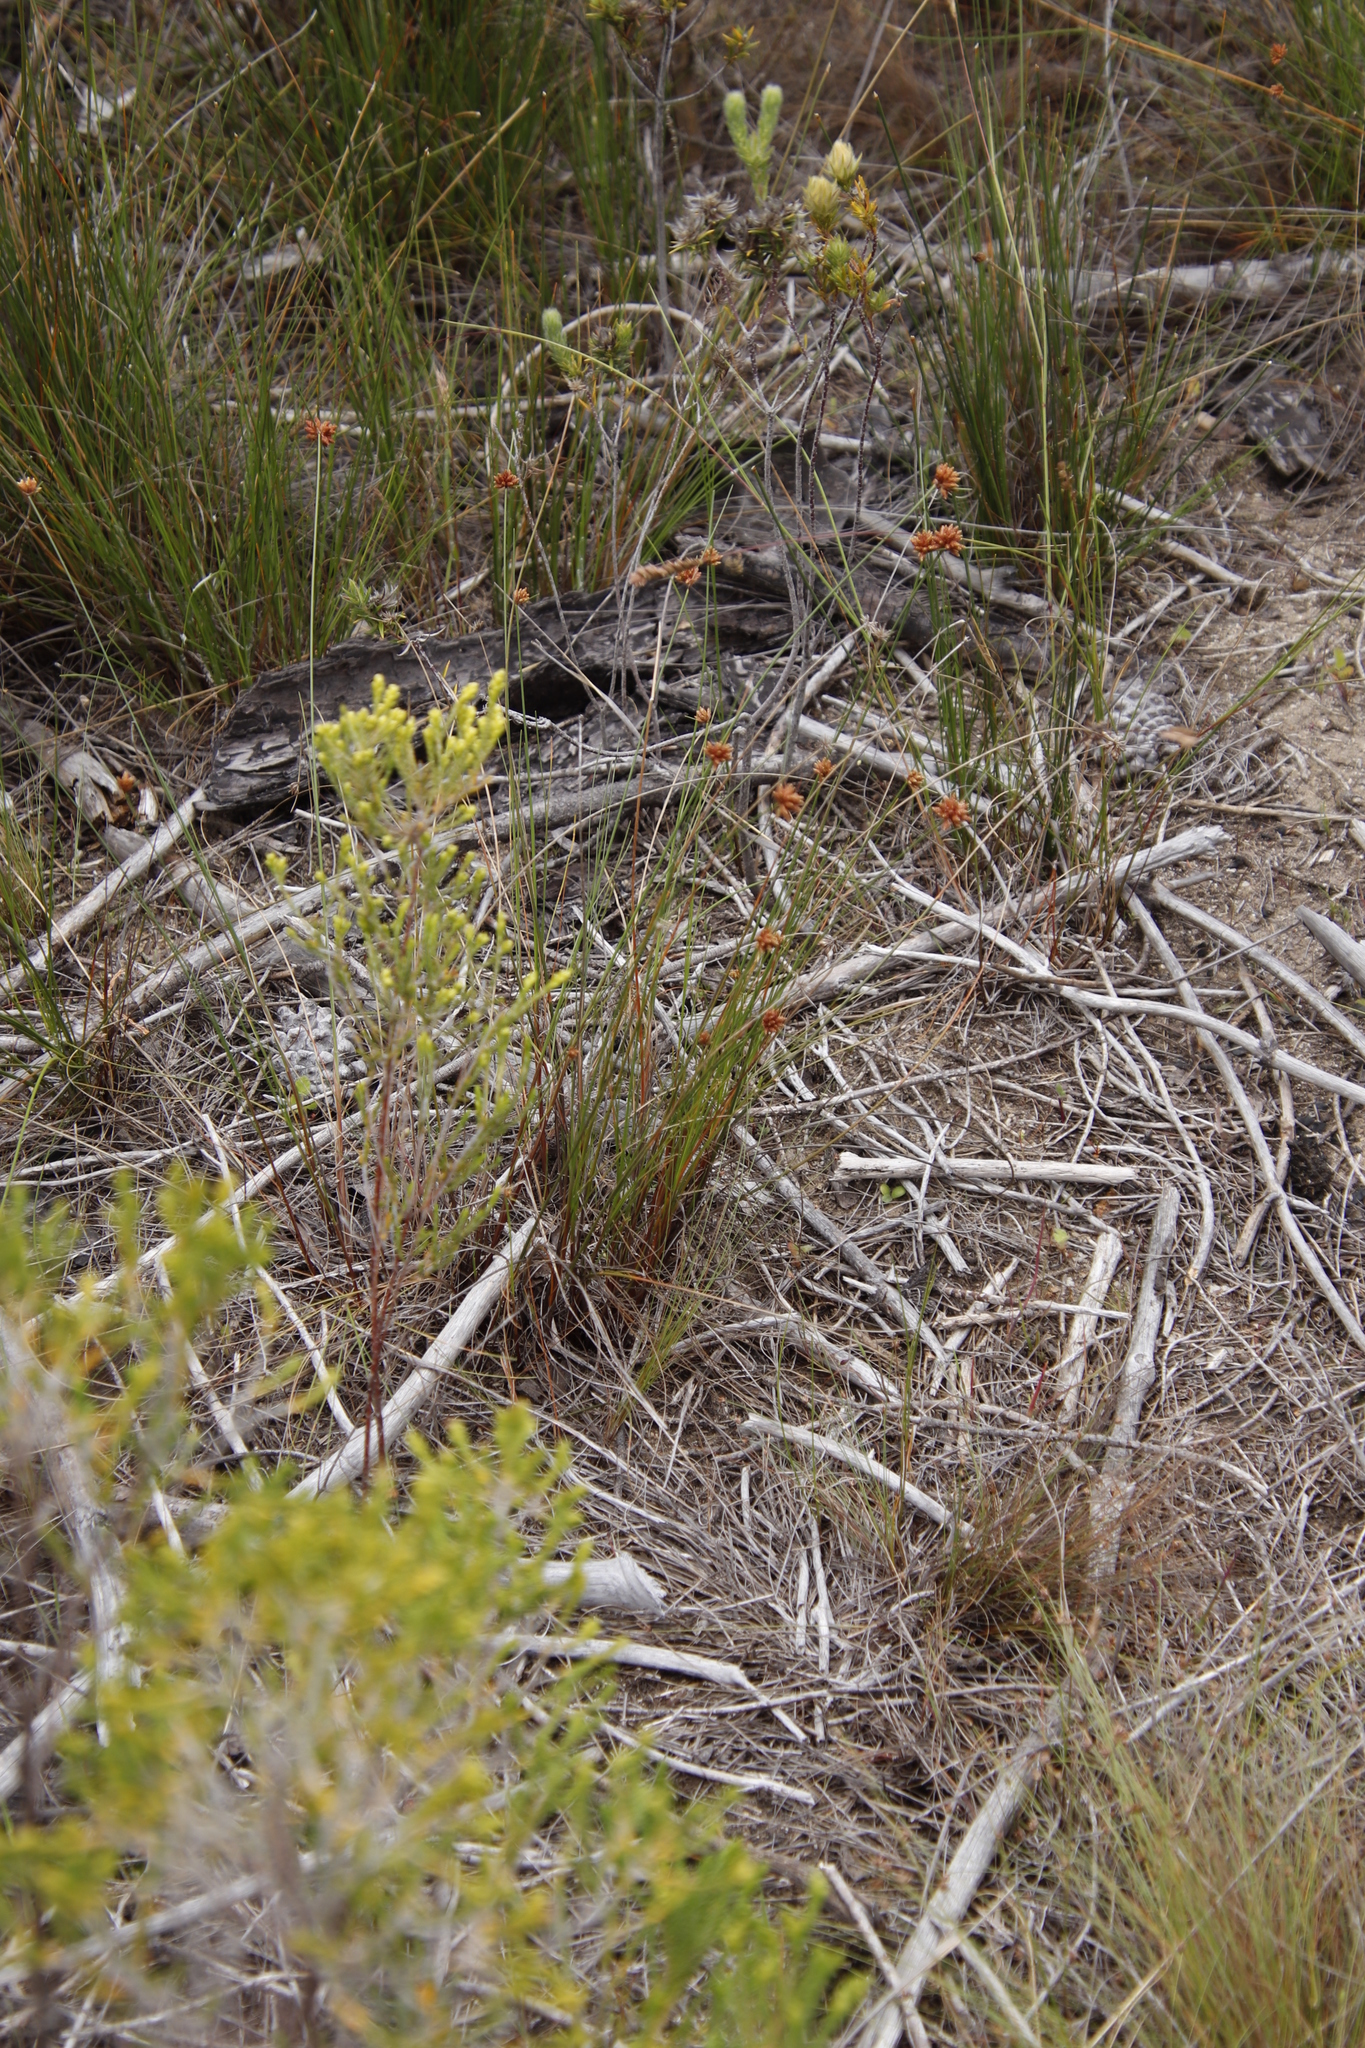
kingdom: Plantae
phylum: Tracheophyta
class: Liliopsida
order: Poales
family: Cyperaceae
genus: Ficinia
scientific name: Ficinia ecklonea
